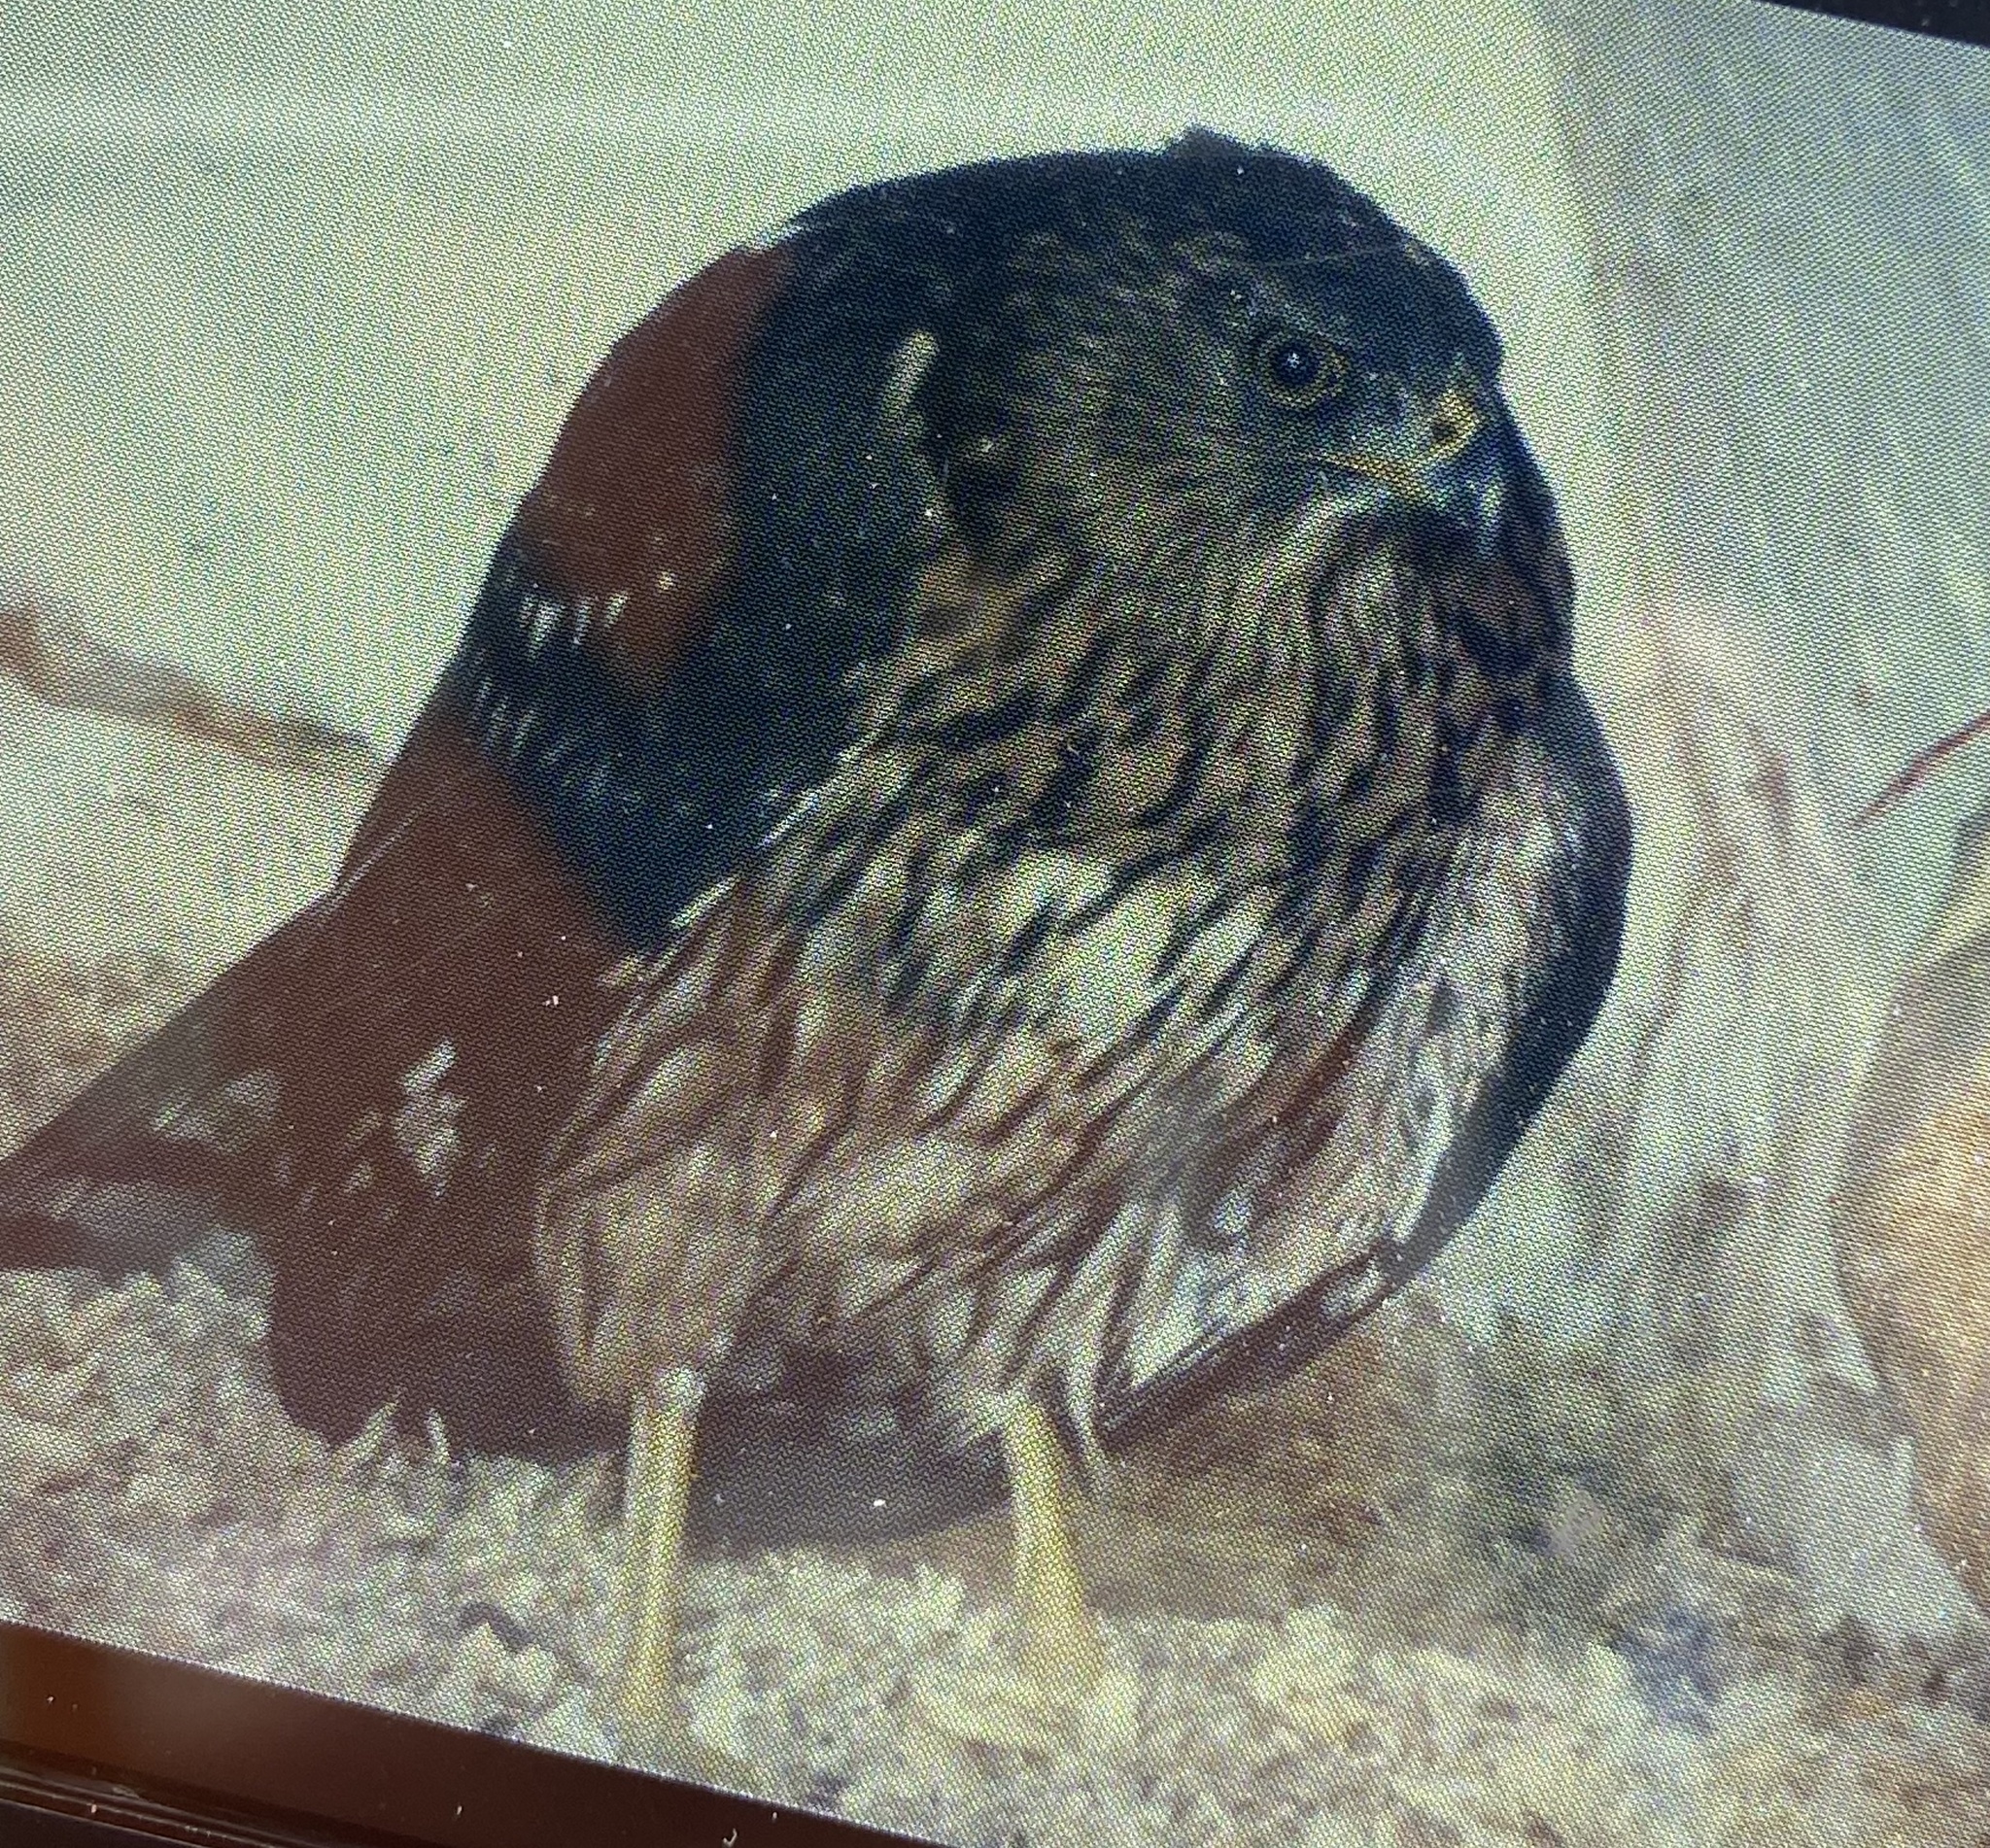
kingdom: Animalia
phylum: Chordata
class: Aves
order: Accipitriformes
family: Accipitridae
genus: Accipiter
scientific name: Accipiter melanoleucus
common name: Black sparrowhawk
